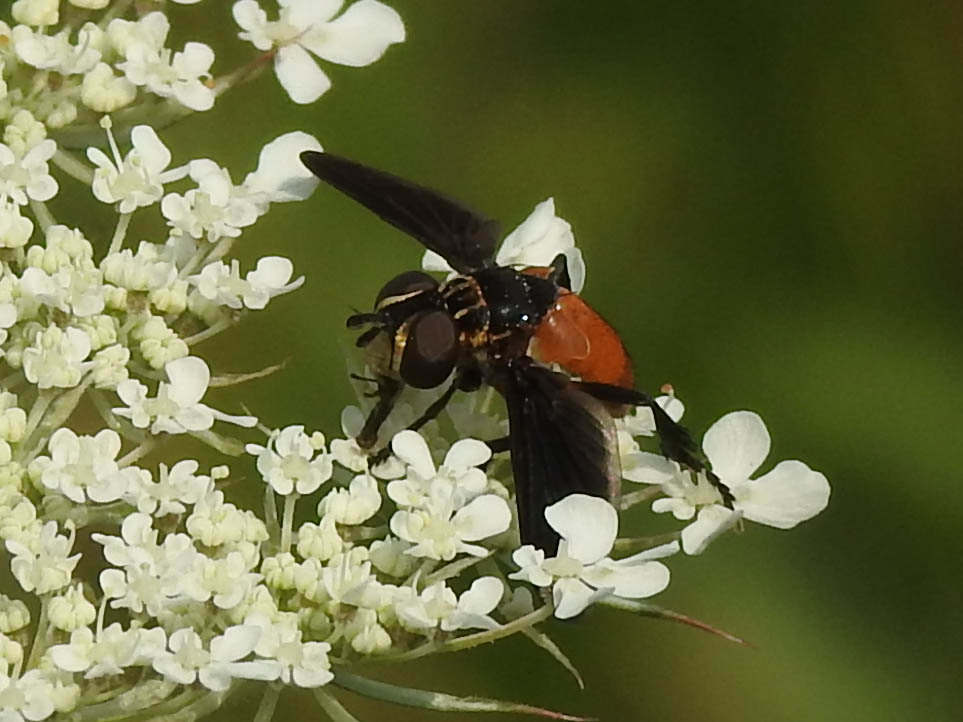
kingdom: Animalia
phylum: Arthropoda
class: Insecta
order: Diptera
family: Tachinidae
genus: Trichopoda
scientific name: Trichopoda pennipes
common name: Tachinid fly
